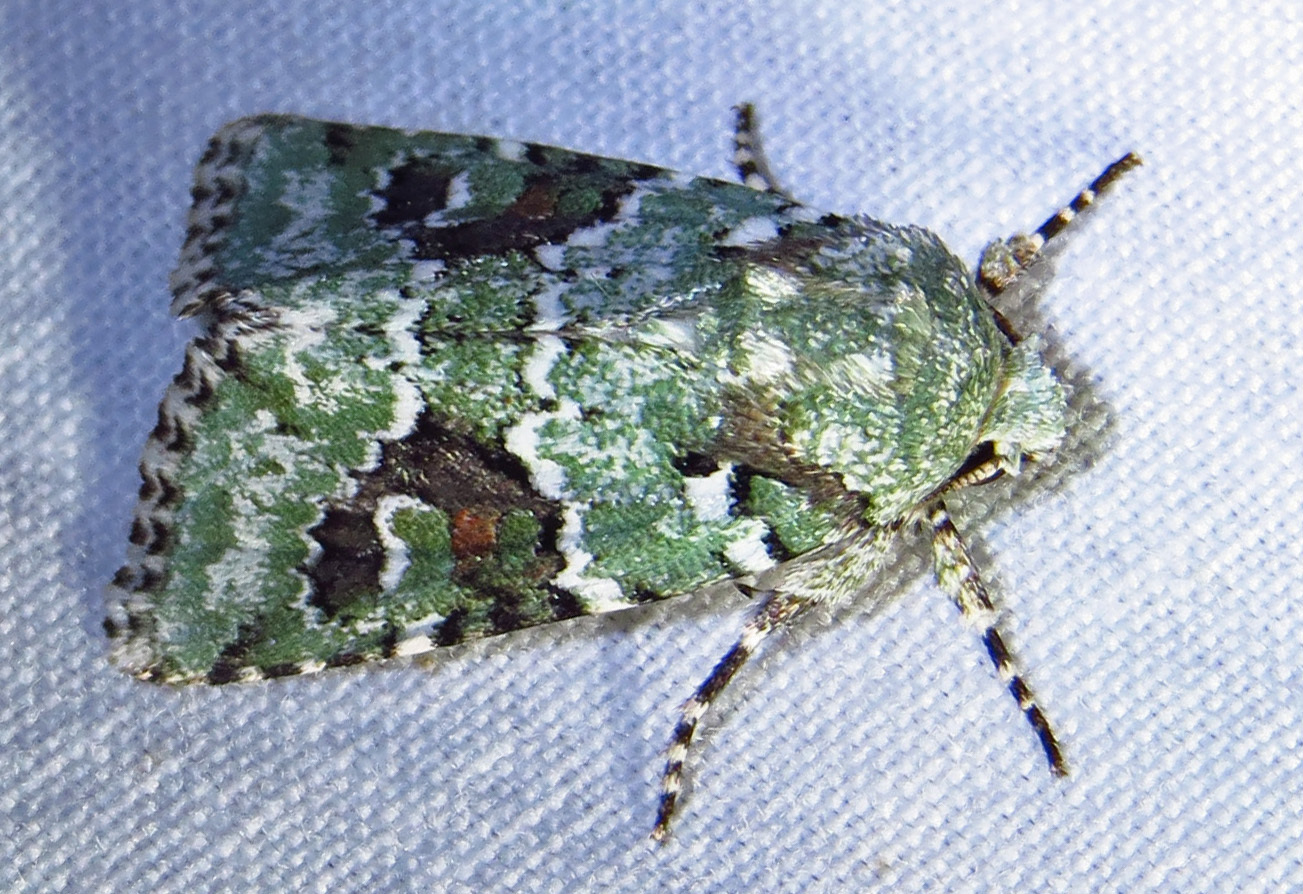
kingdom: Animalia
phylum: Arthropoda
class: Insecta
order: Lepidoptera
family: Noctuidae
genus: Lacinipolia
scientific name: Lacinipolia laudabilis
